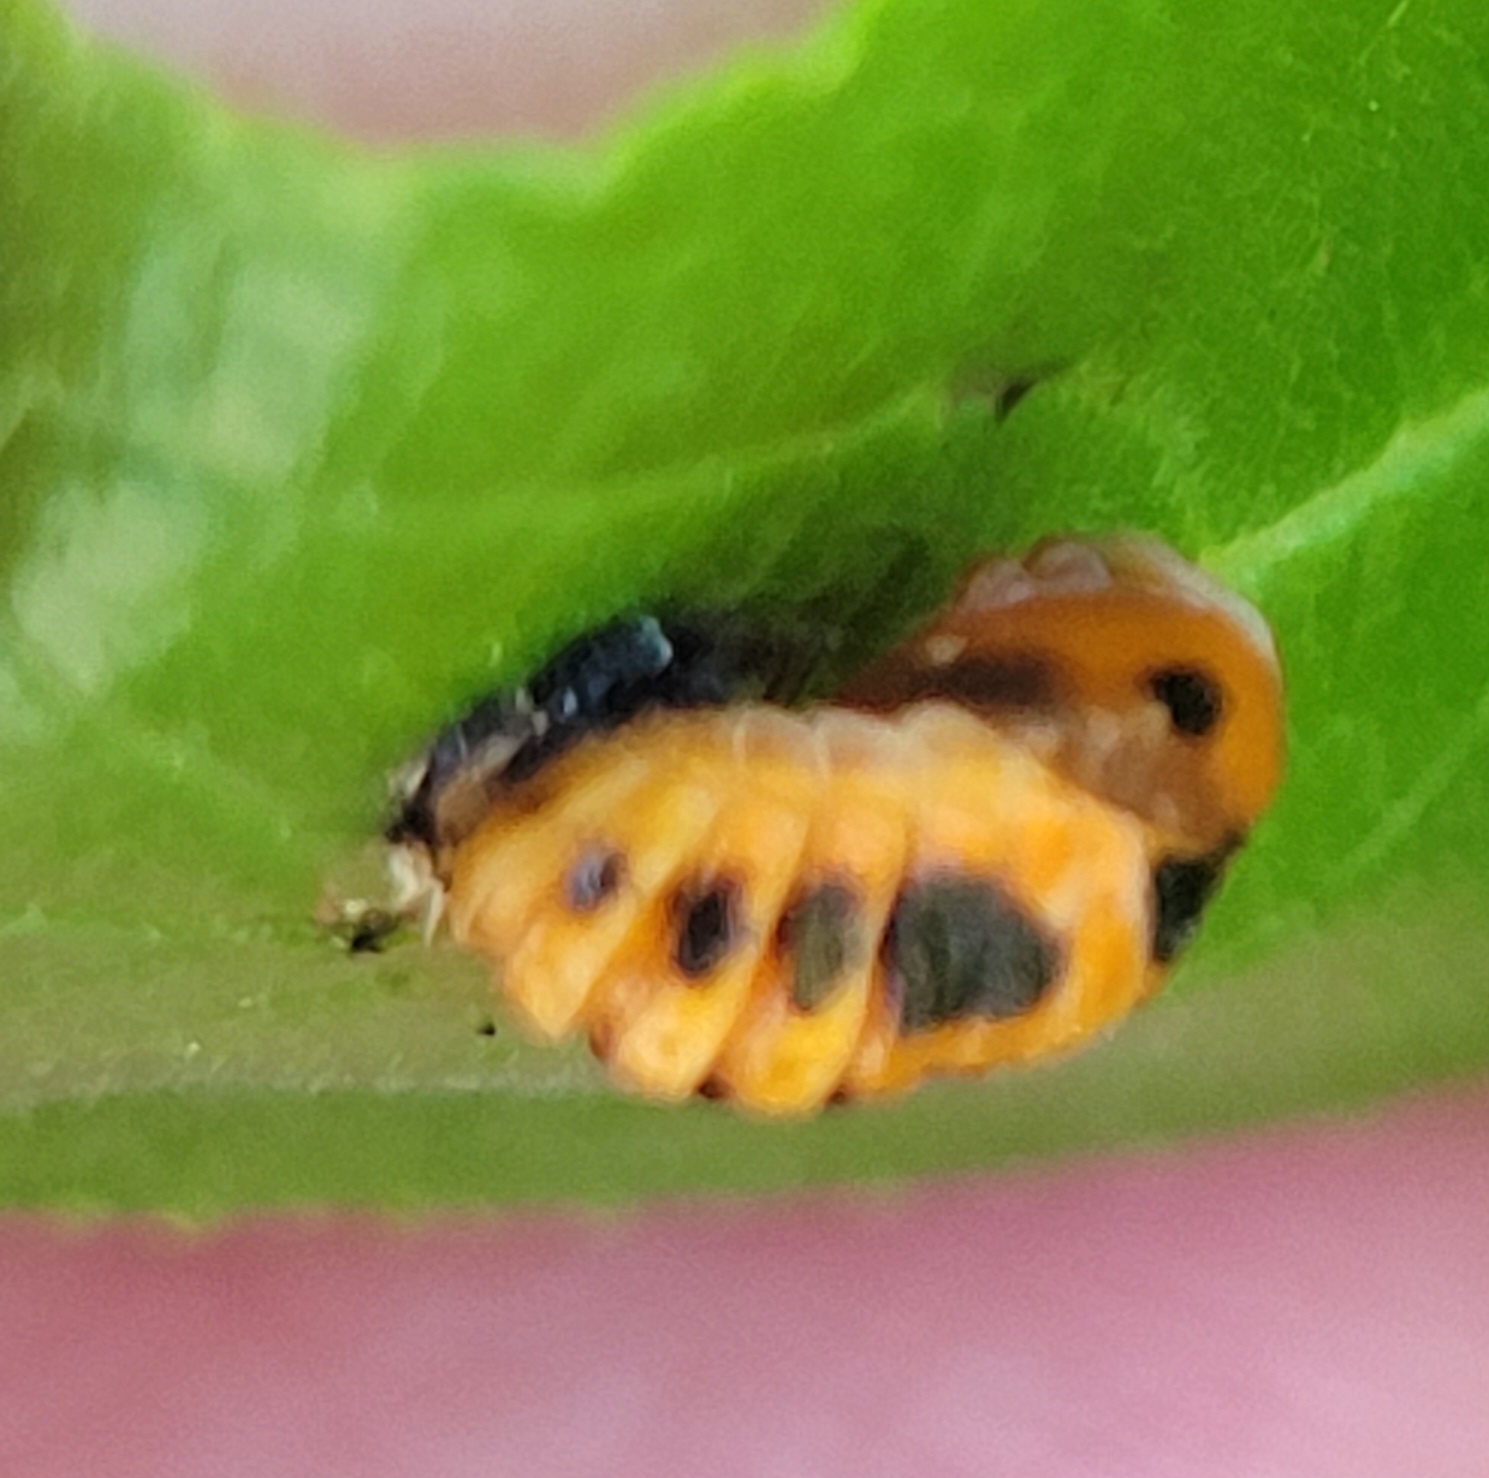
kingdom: Animalia
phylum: Arthropoda
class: Insecta
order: Coleoptera
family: Coccinellidae
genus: Harmonia
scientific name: Harmonia axyridis
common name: Harlequin ladybird
